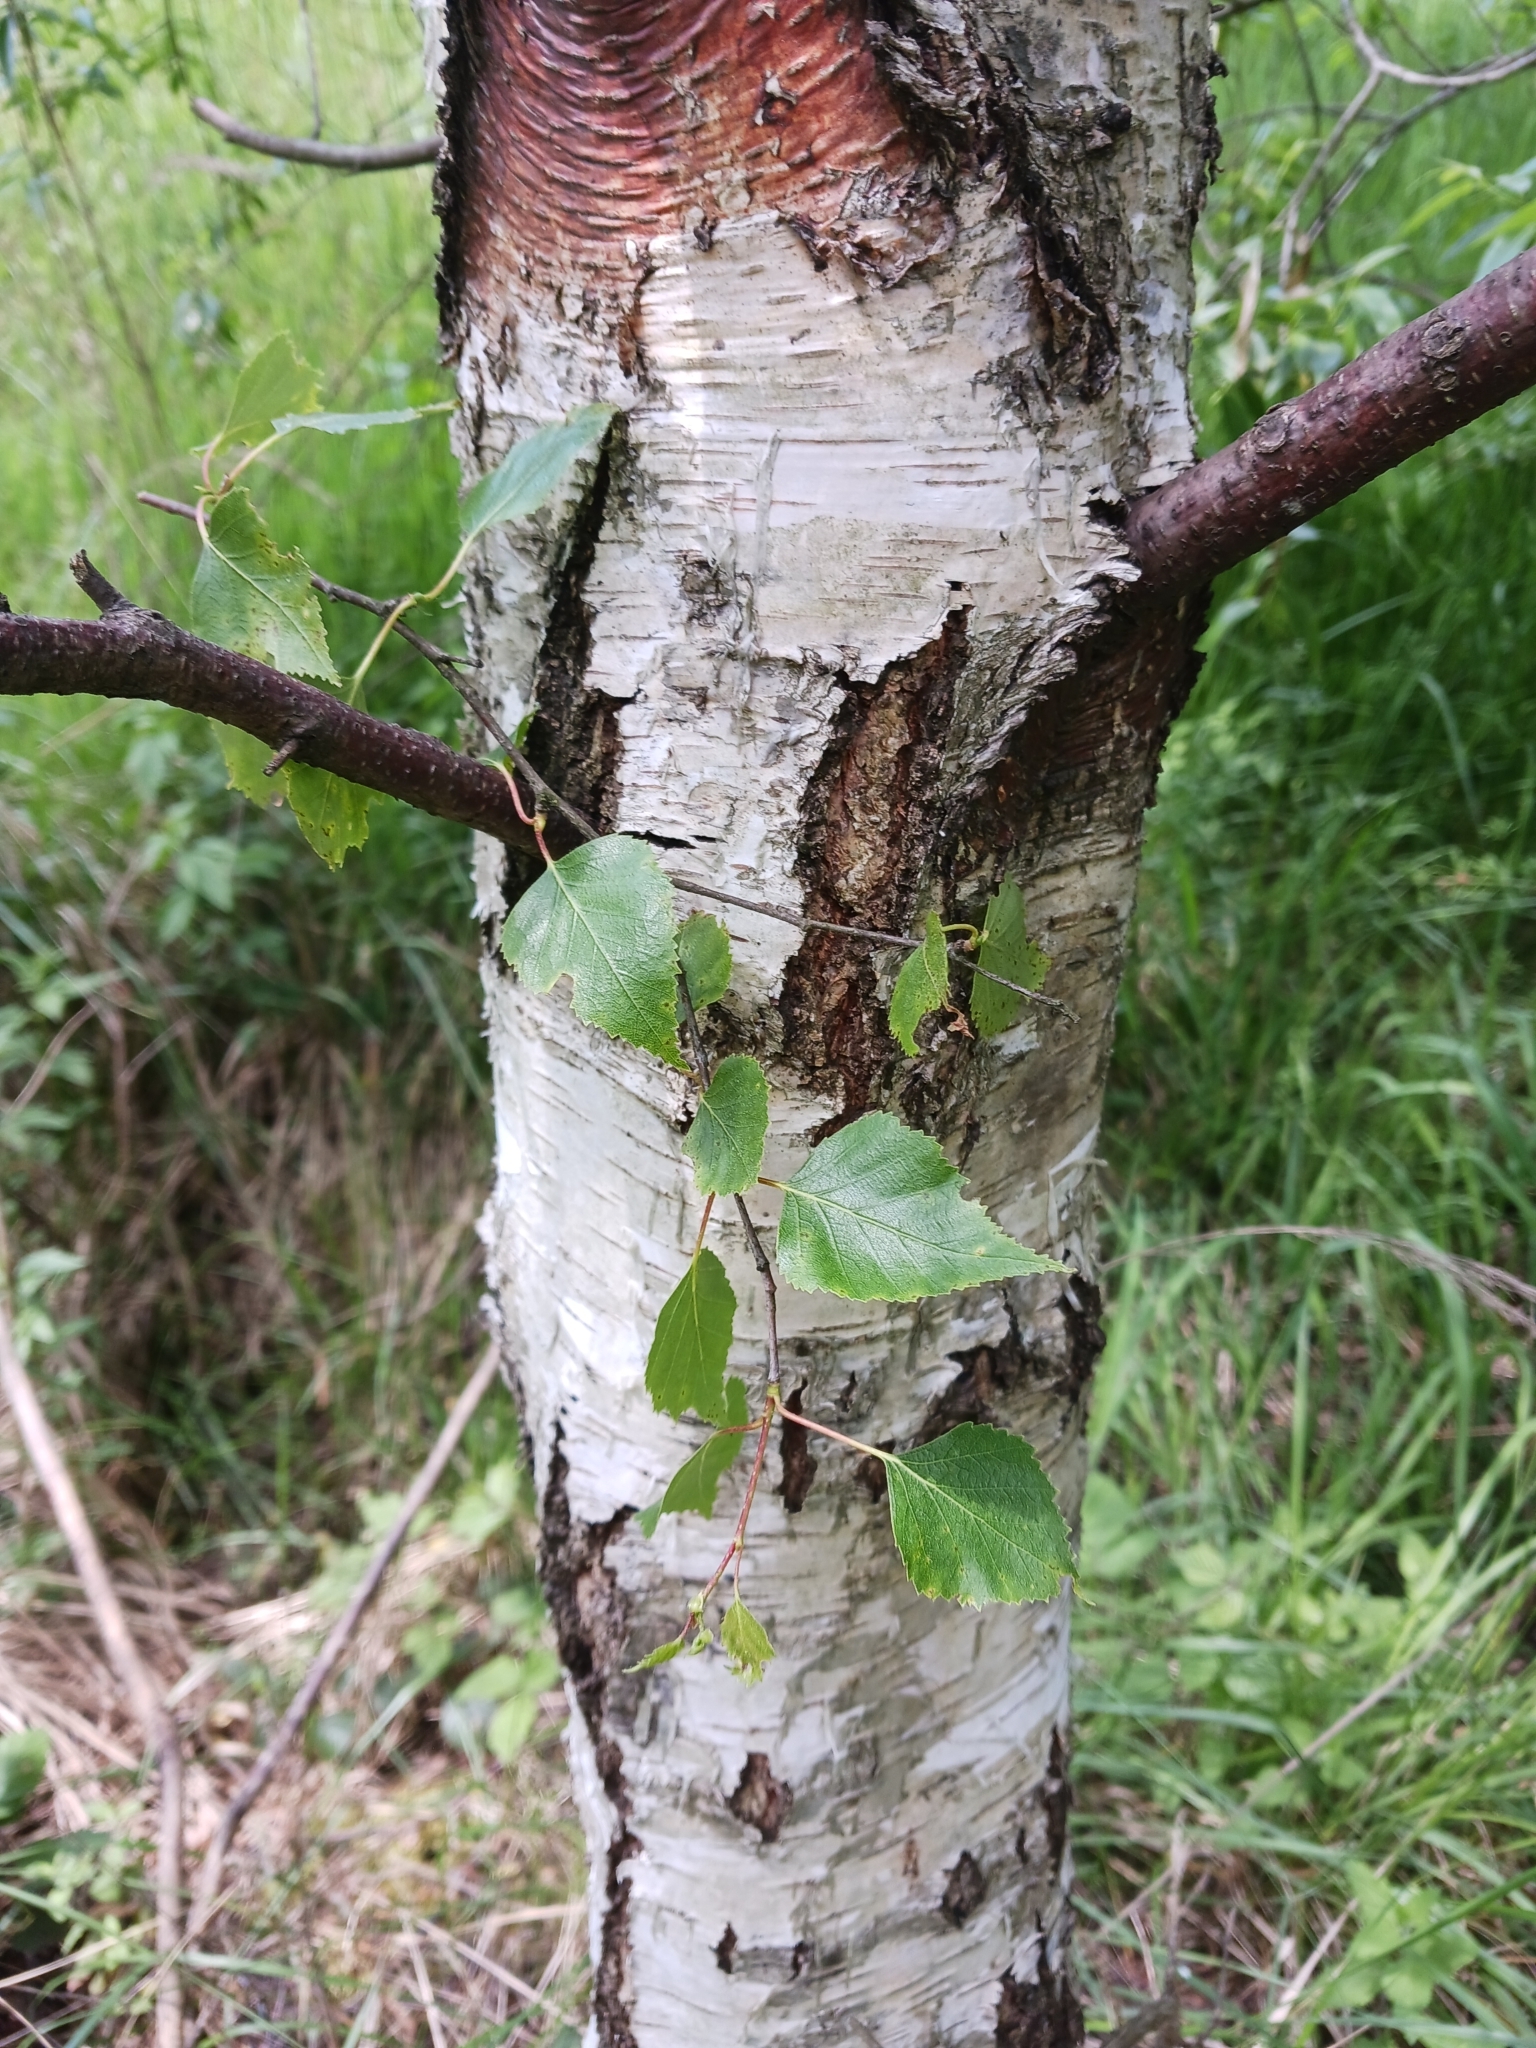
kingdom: Plantae
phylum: Tracheophyta
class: Magnoliopsida
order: Fagales
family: Betulaceae
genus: Betula
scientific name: Betula pendula
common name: Silver birch
